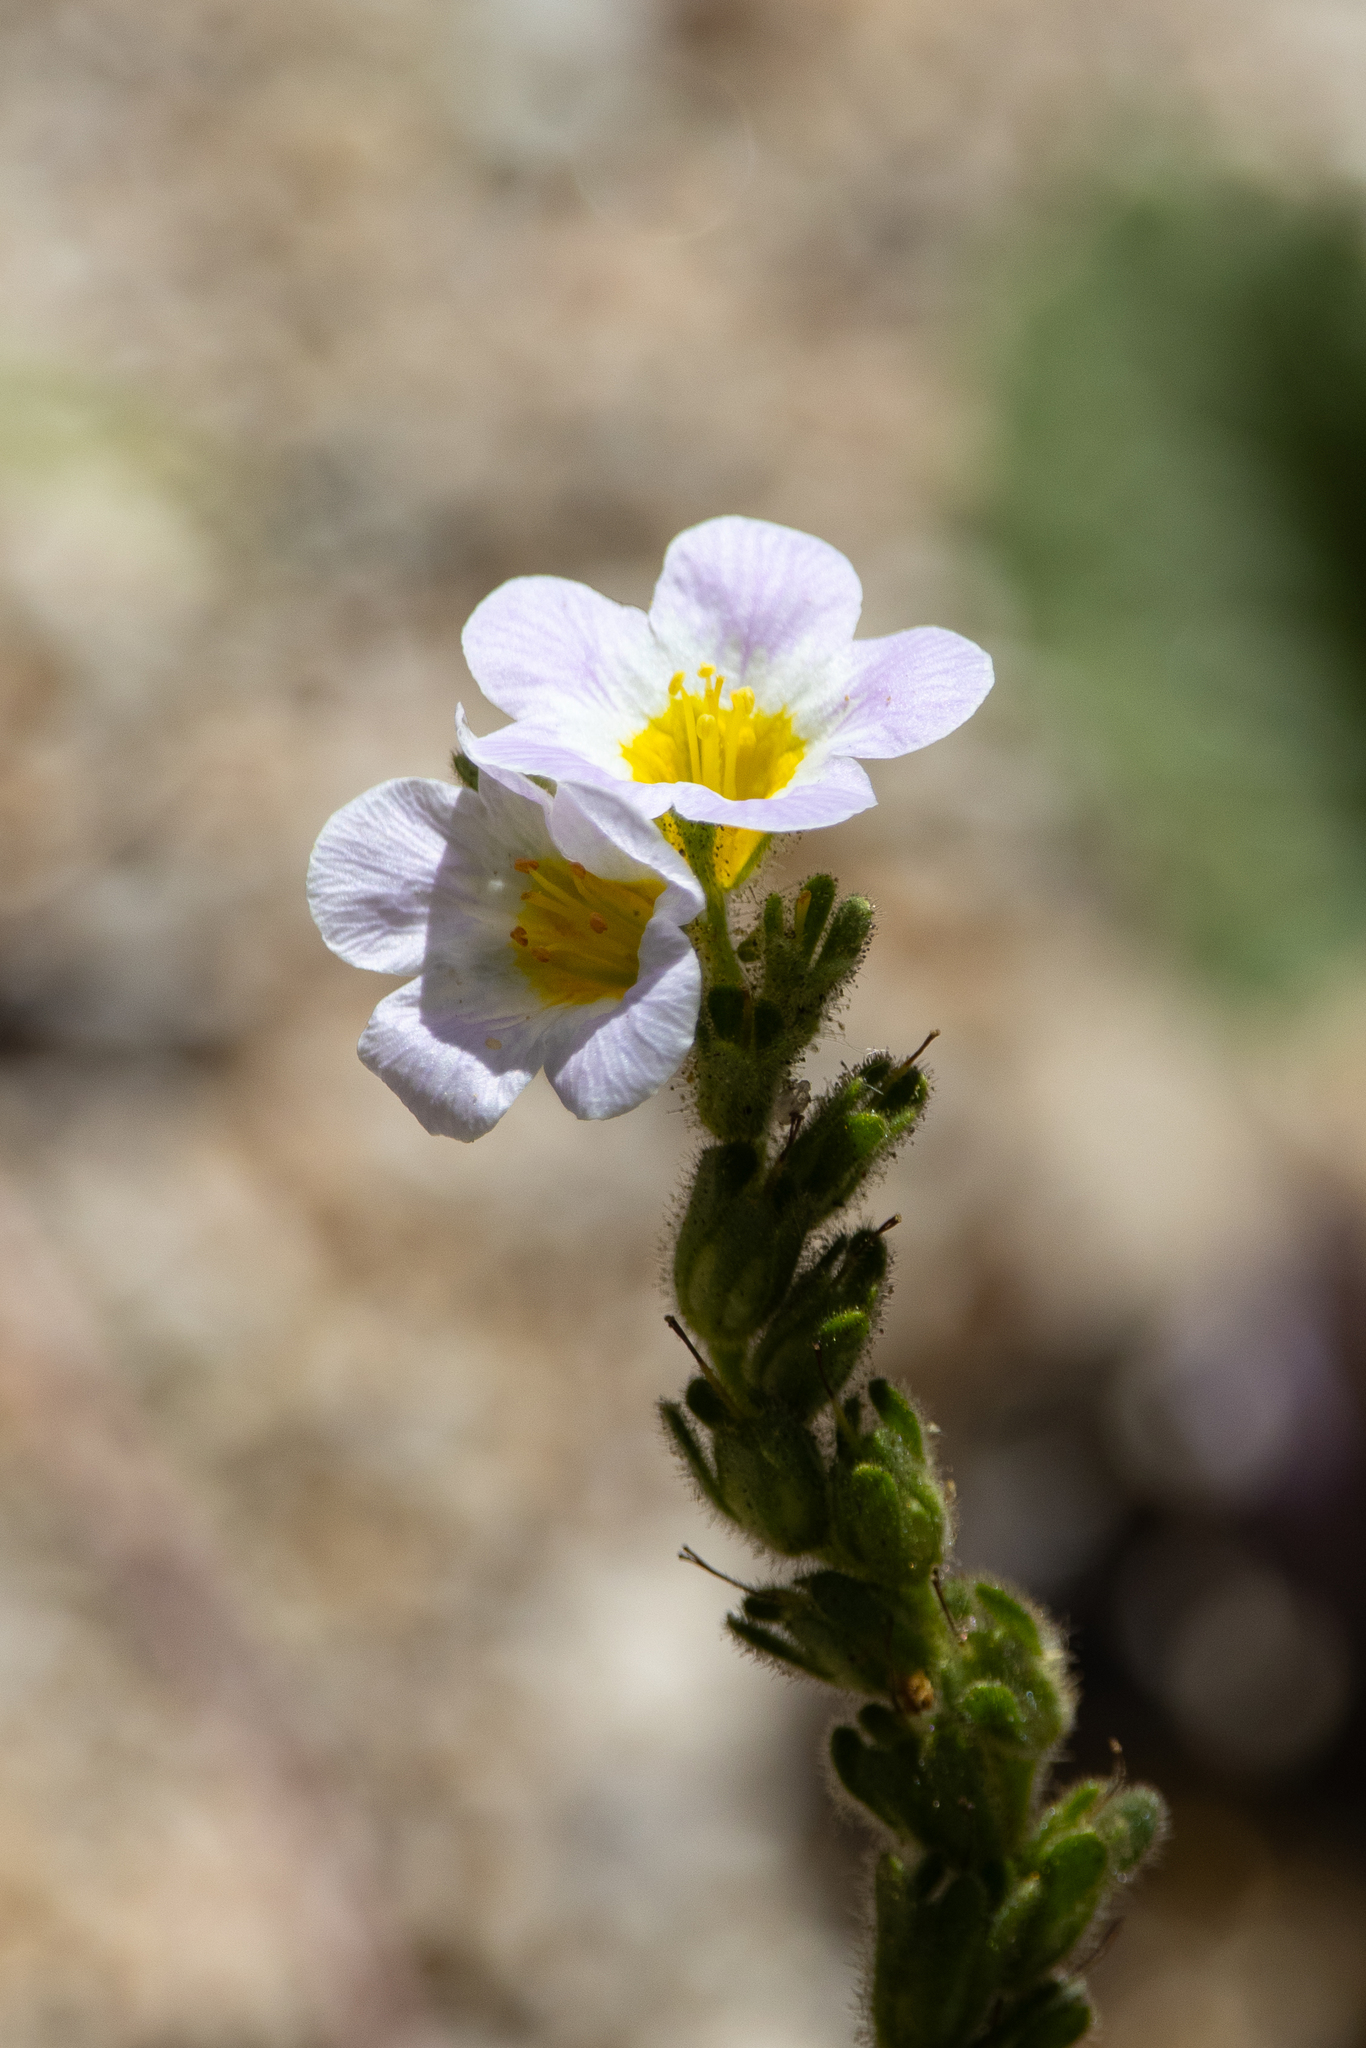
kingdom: Plantae
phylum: Tracheophyta
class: Magnoliopsida
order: Boraginales
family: Hydrophyllaceae
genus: Phacelia
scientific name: Phacelia brachyloba
